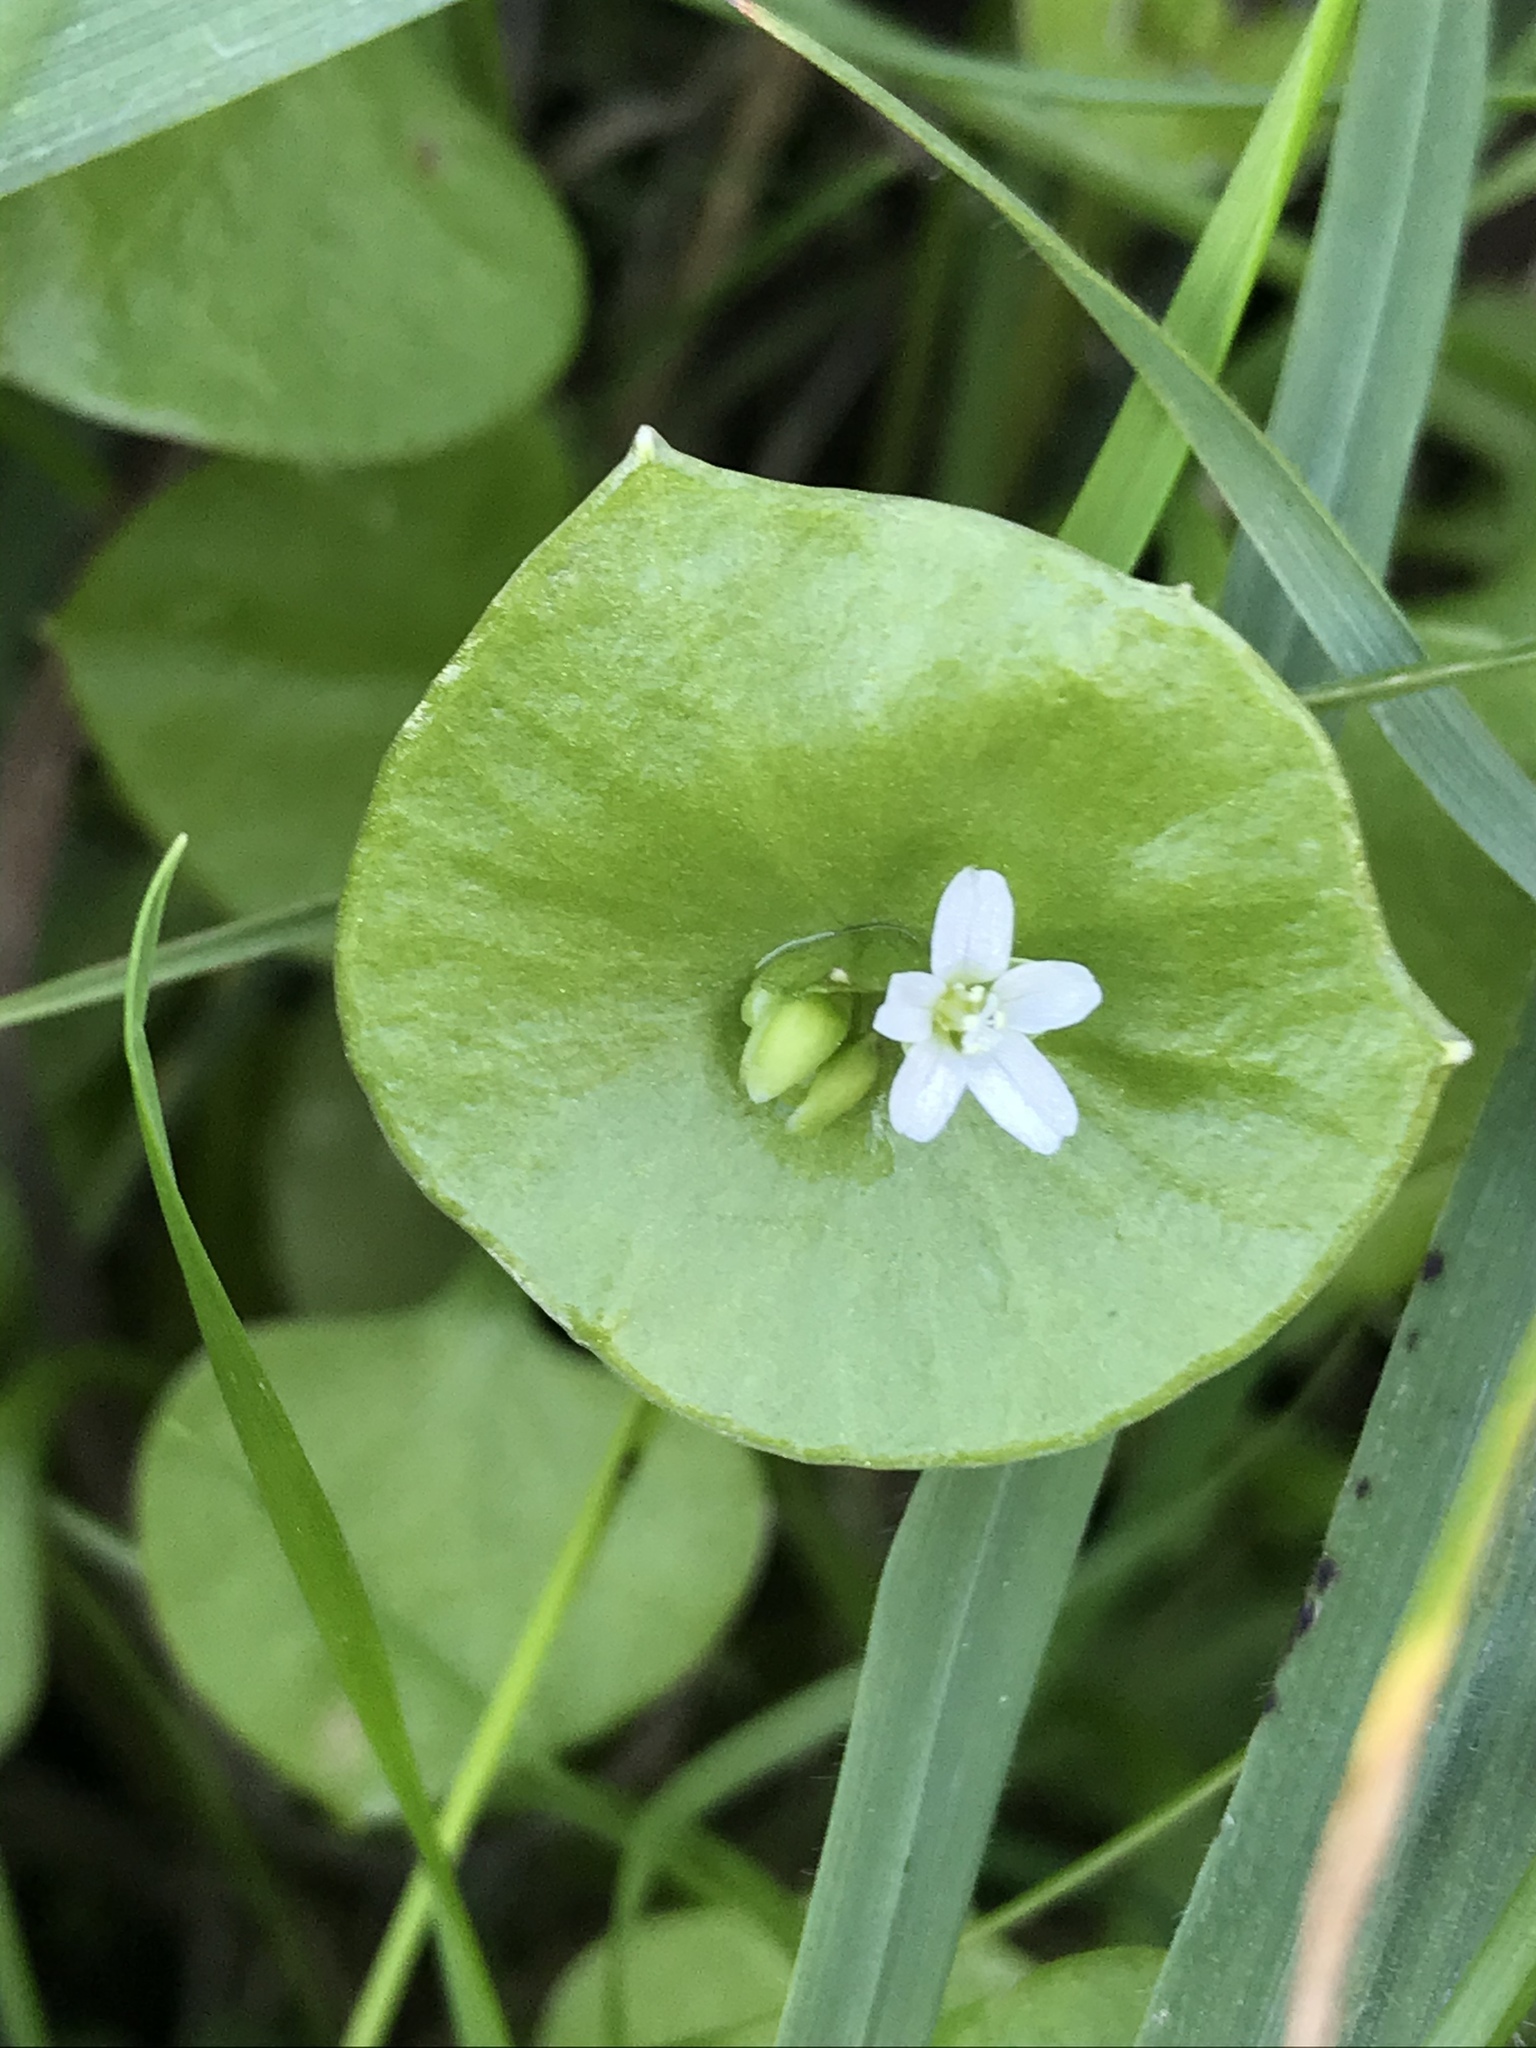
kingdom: Plantae
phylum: Tracheophyta
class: Magnoliopsida
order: Caryophyllales
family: Montiaceae
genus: Claytonia
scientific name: Claytonia perfoliata
